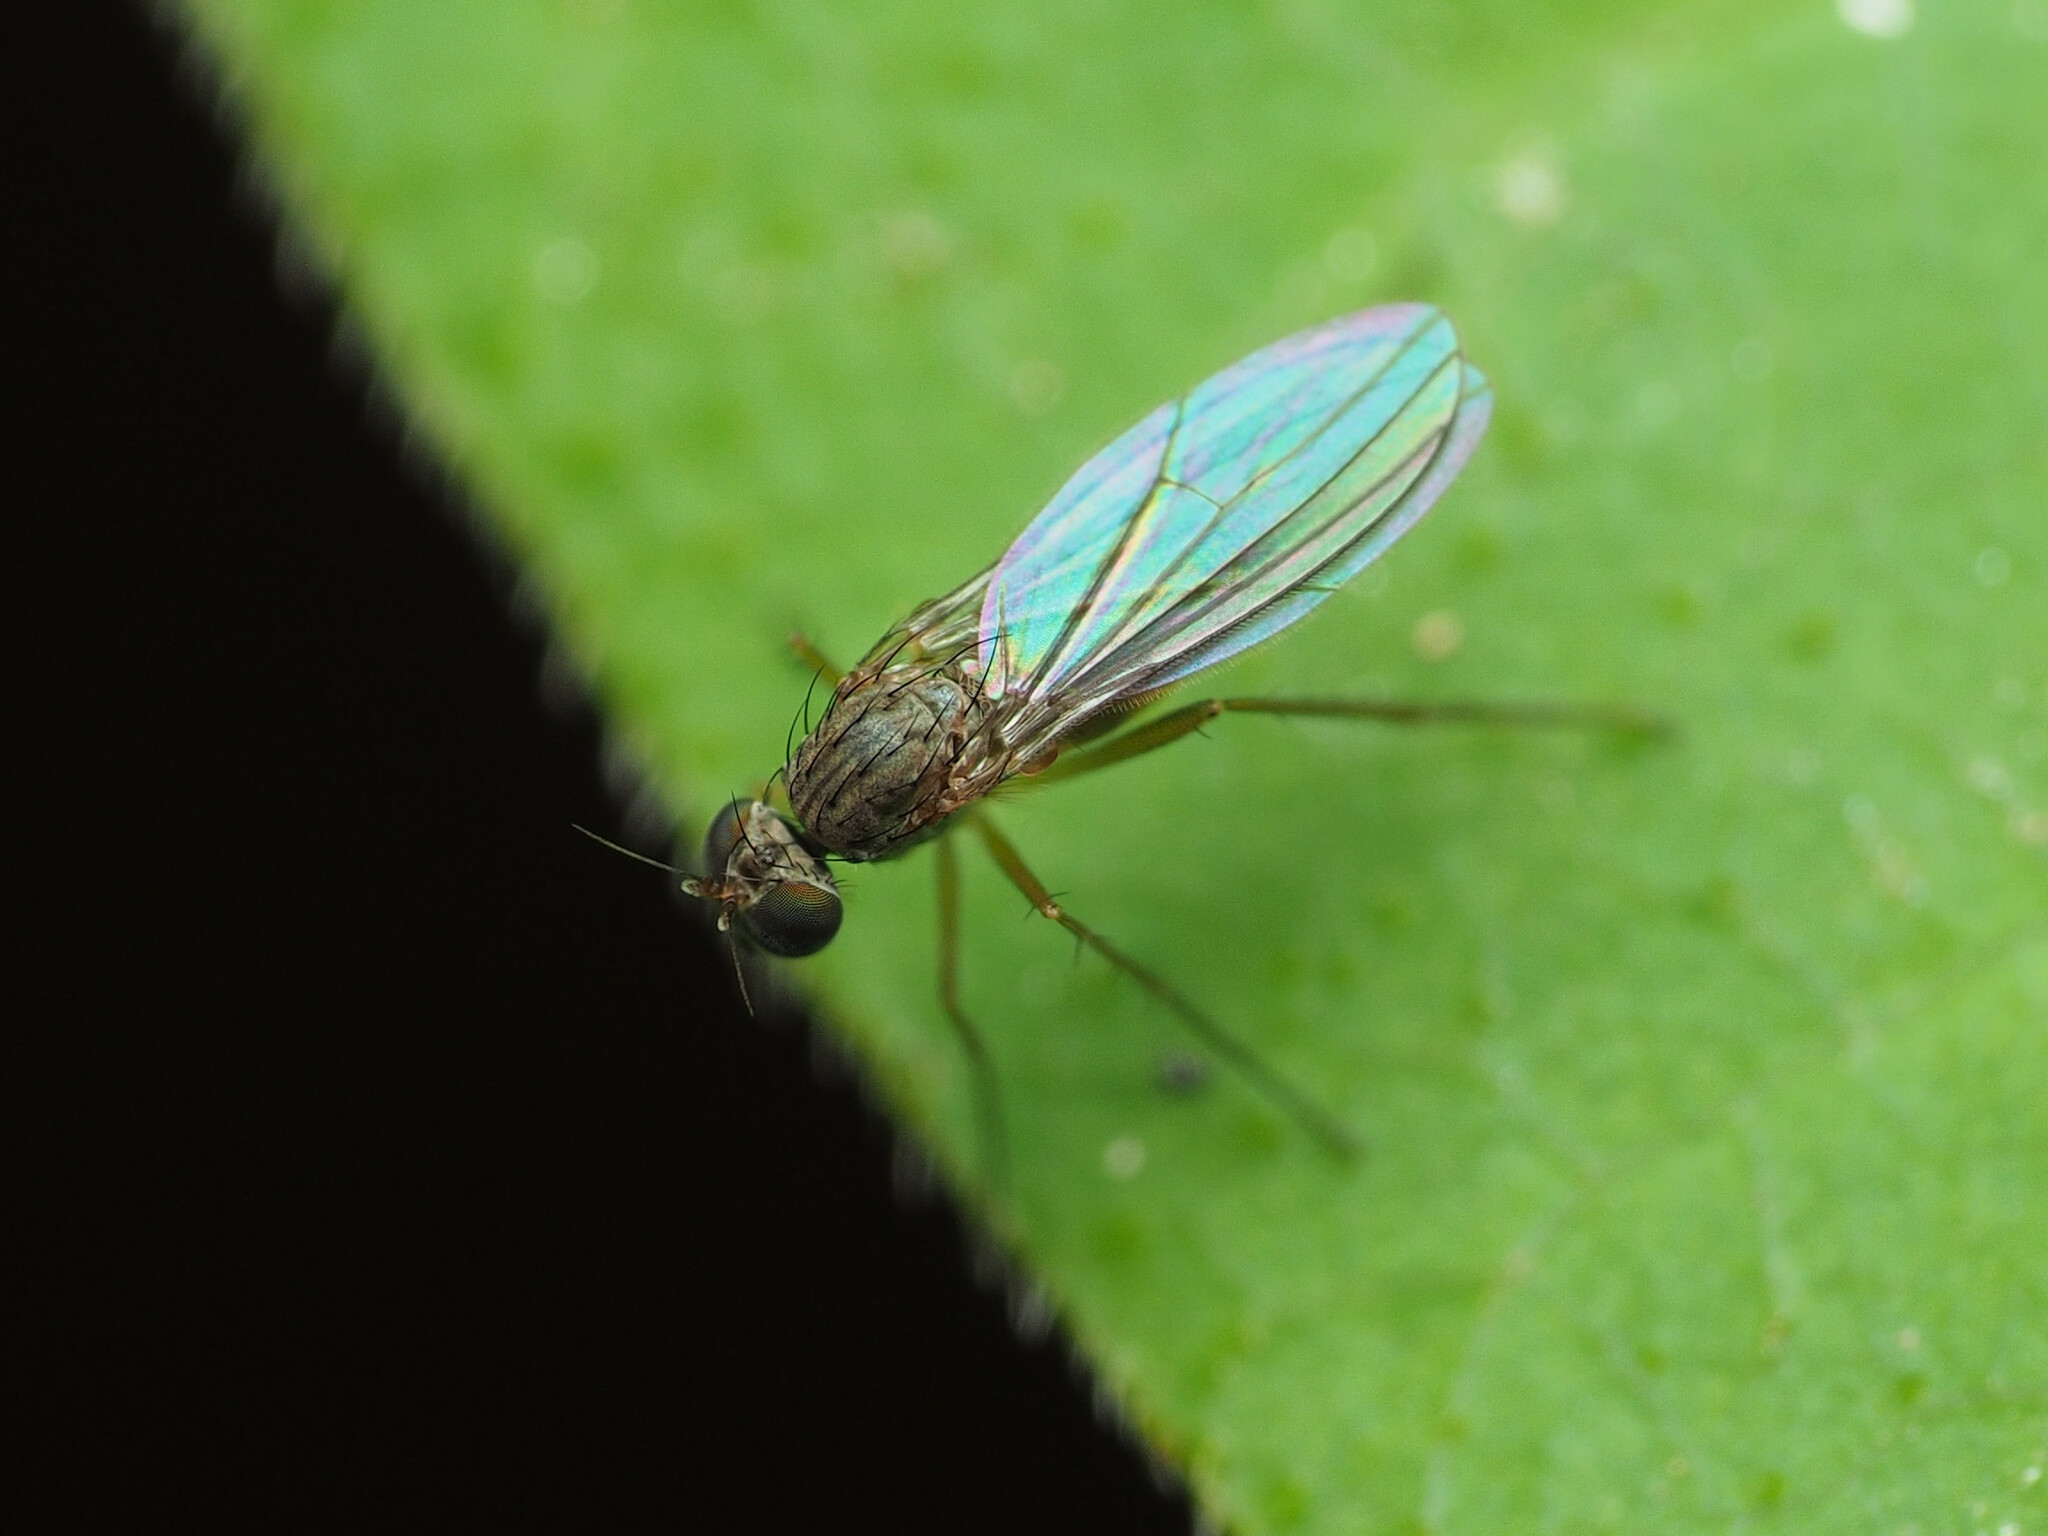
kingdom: Animalia
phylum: Arthropoda
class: Insecta
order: Diptera
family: Dolichopodidae
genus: Sympycnus
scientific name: Sympycnus lineatus
